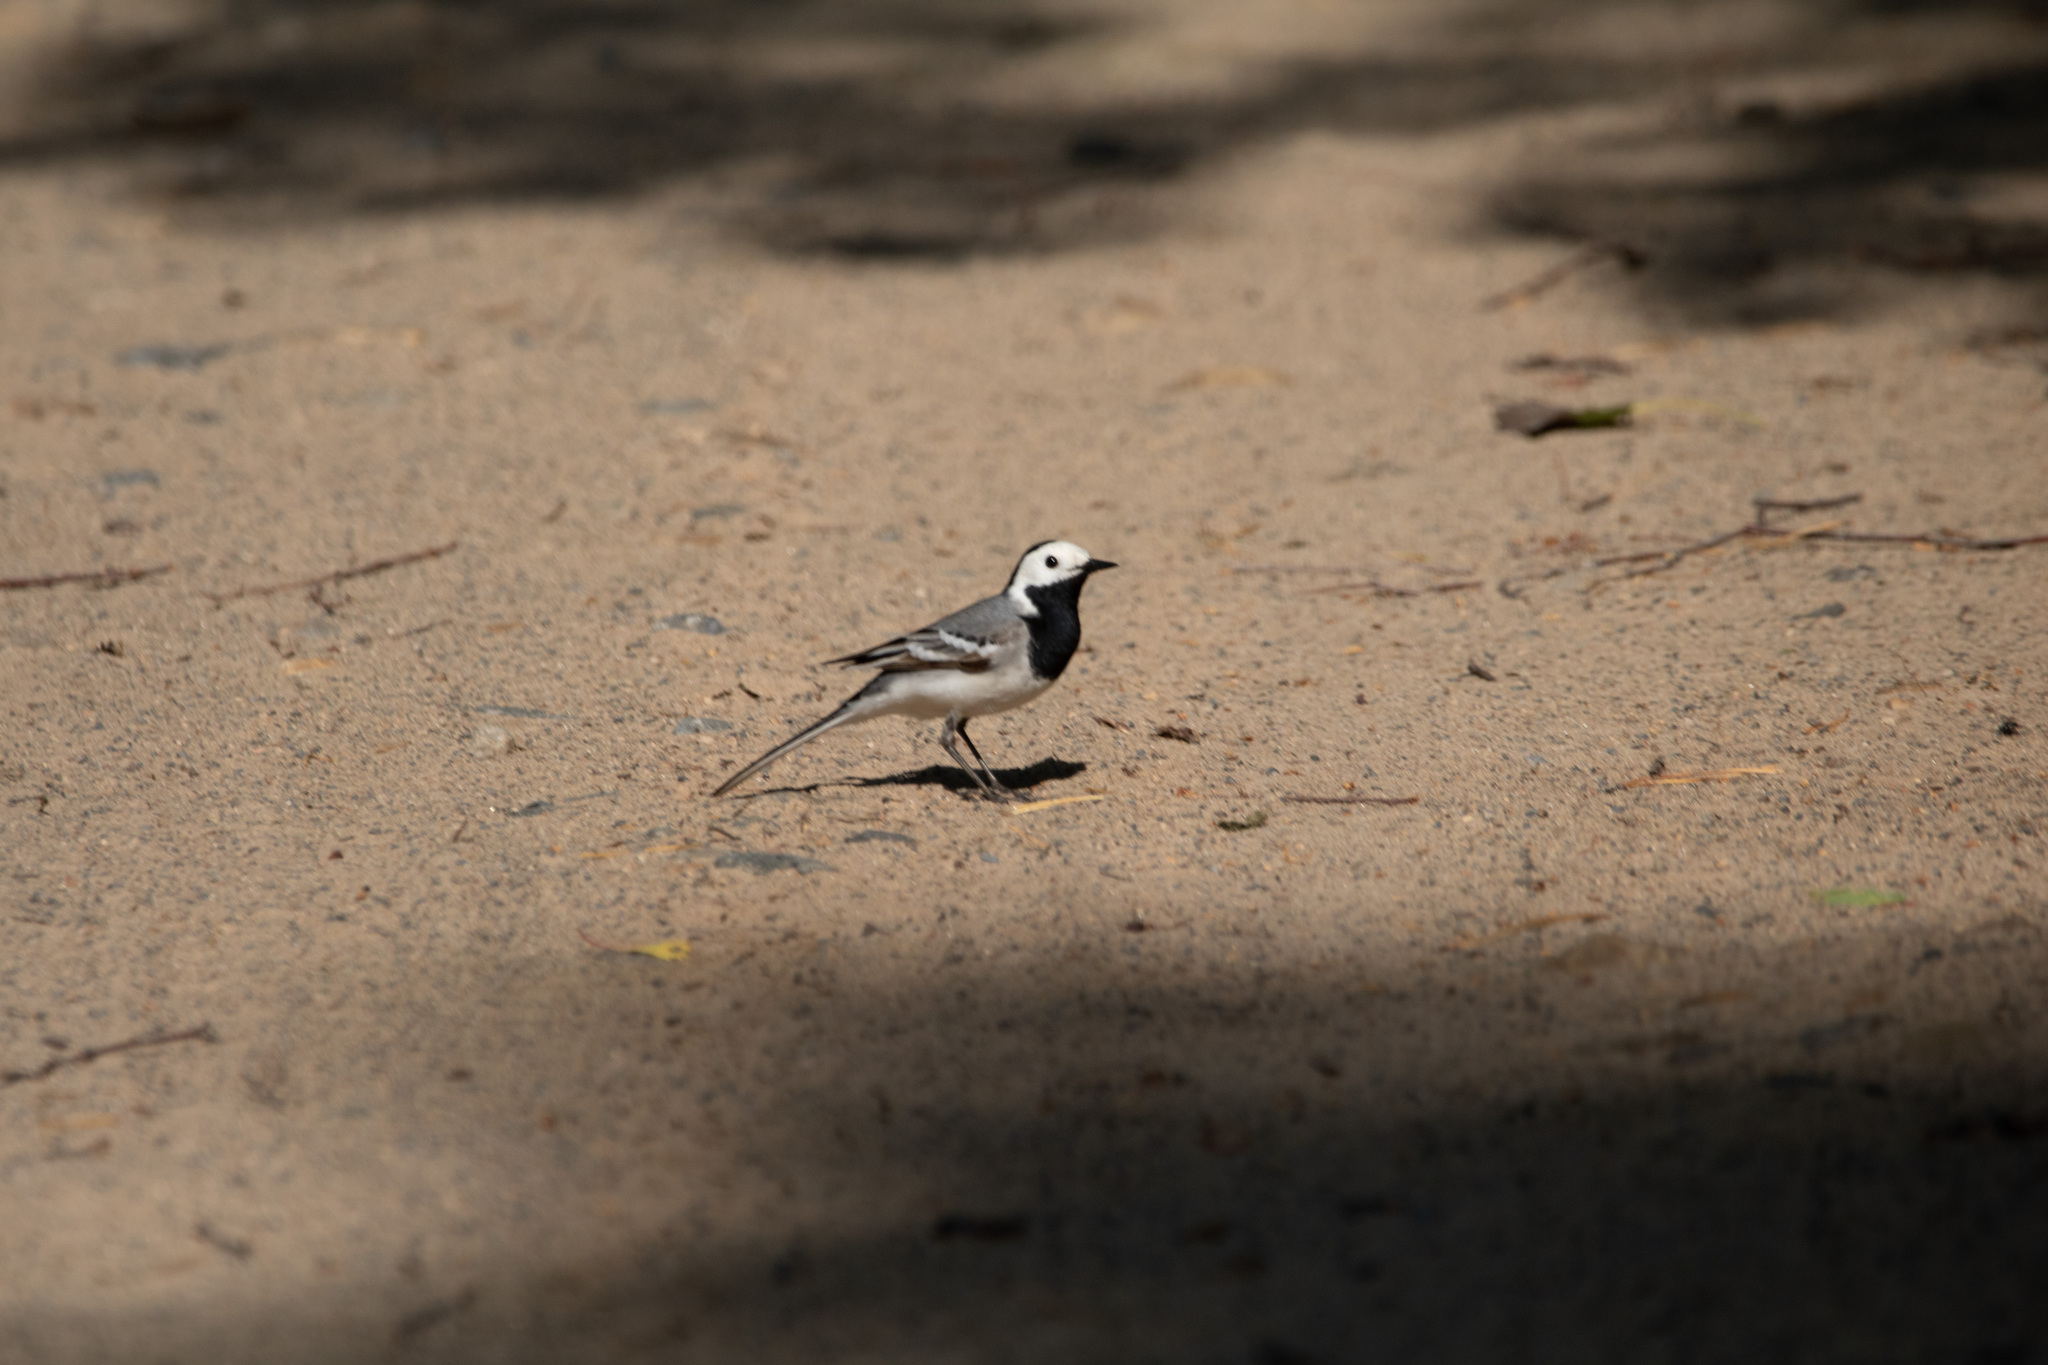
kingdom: Animalia
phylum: Chordata
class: Aves
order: Passeriformes
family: Motacillidae
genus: Motacilla
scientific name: Motacilla alba
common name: White wagtail
